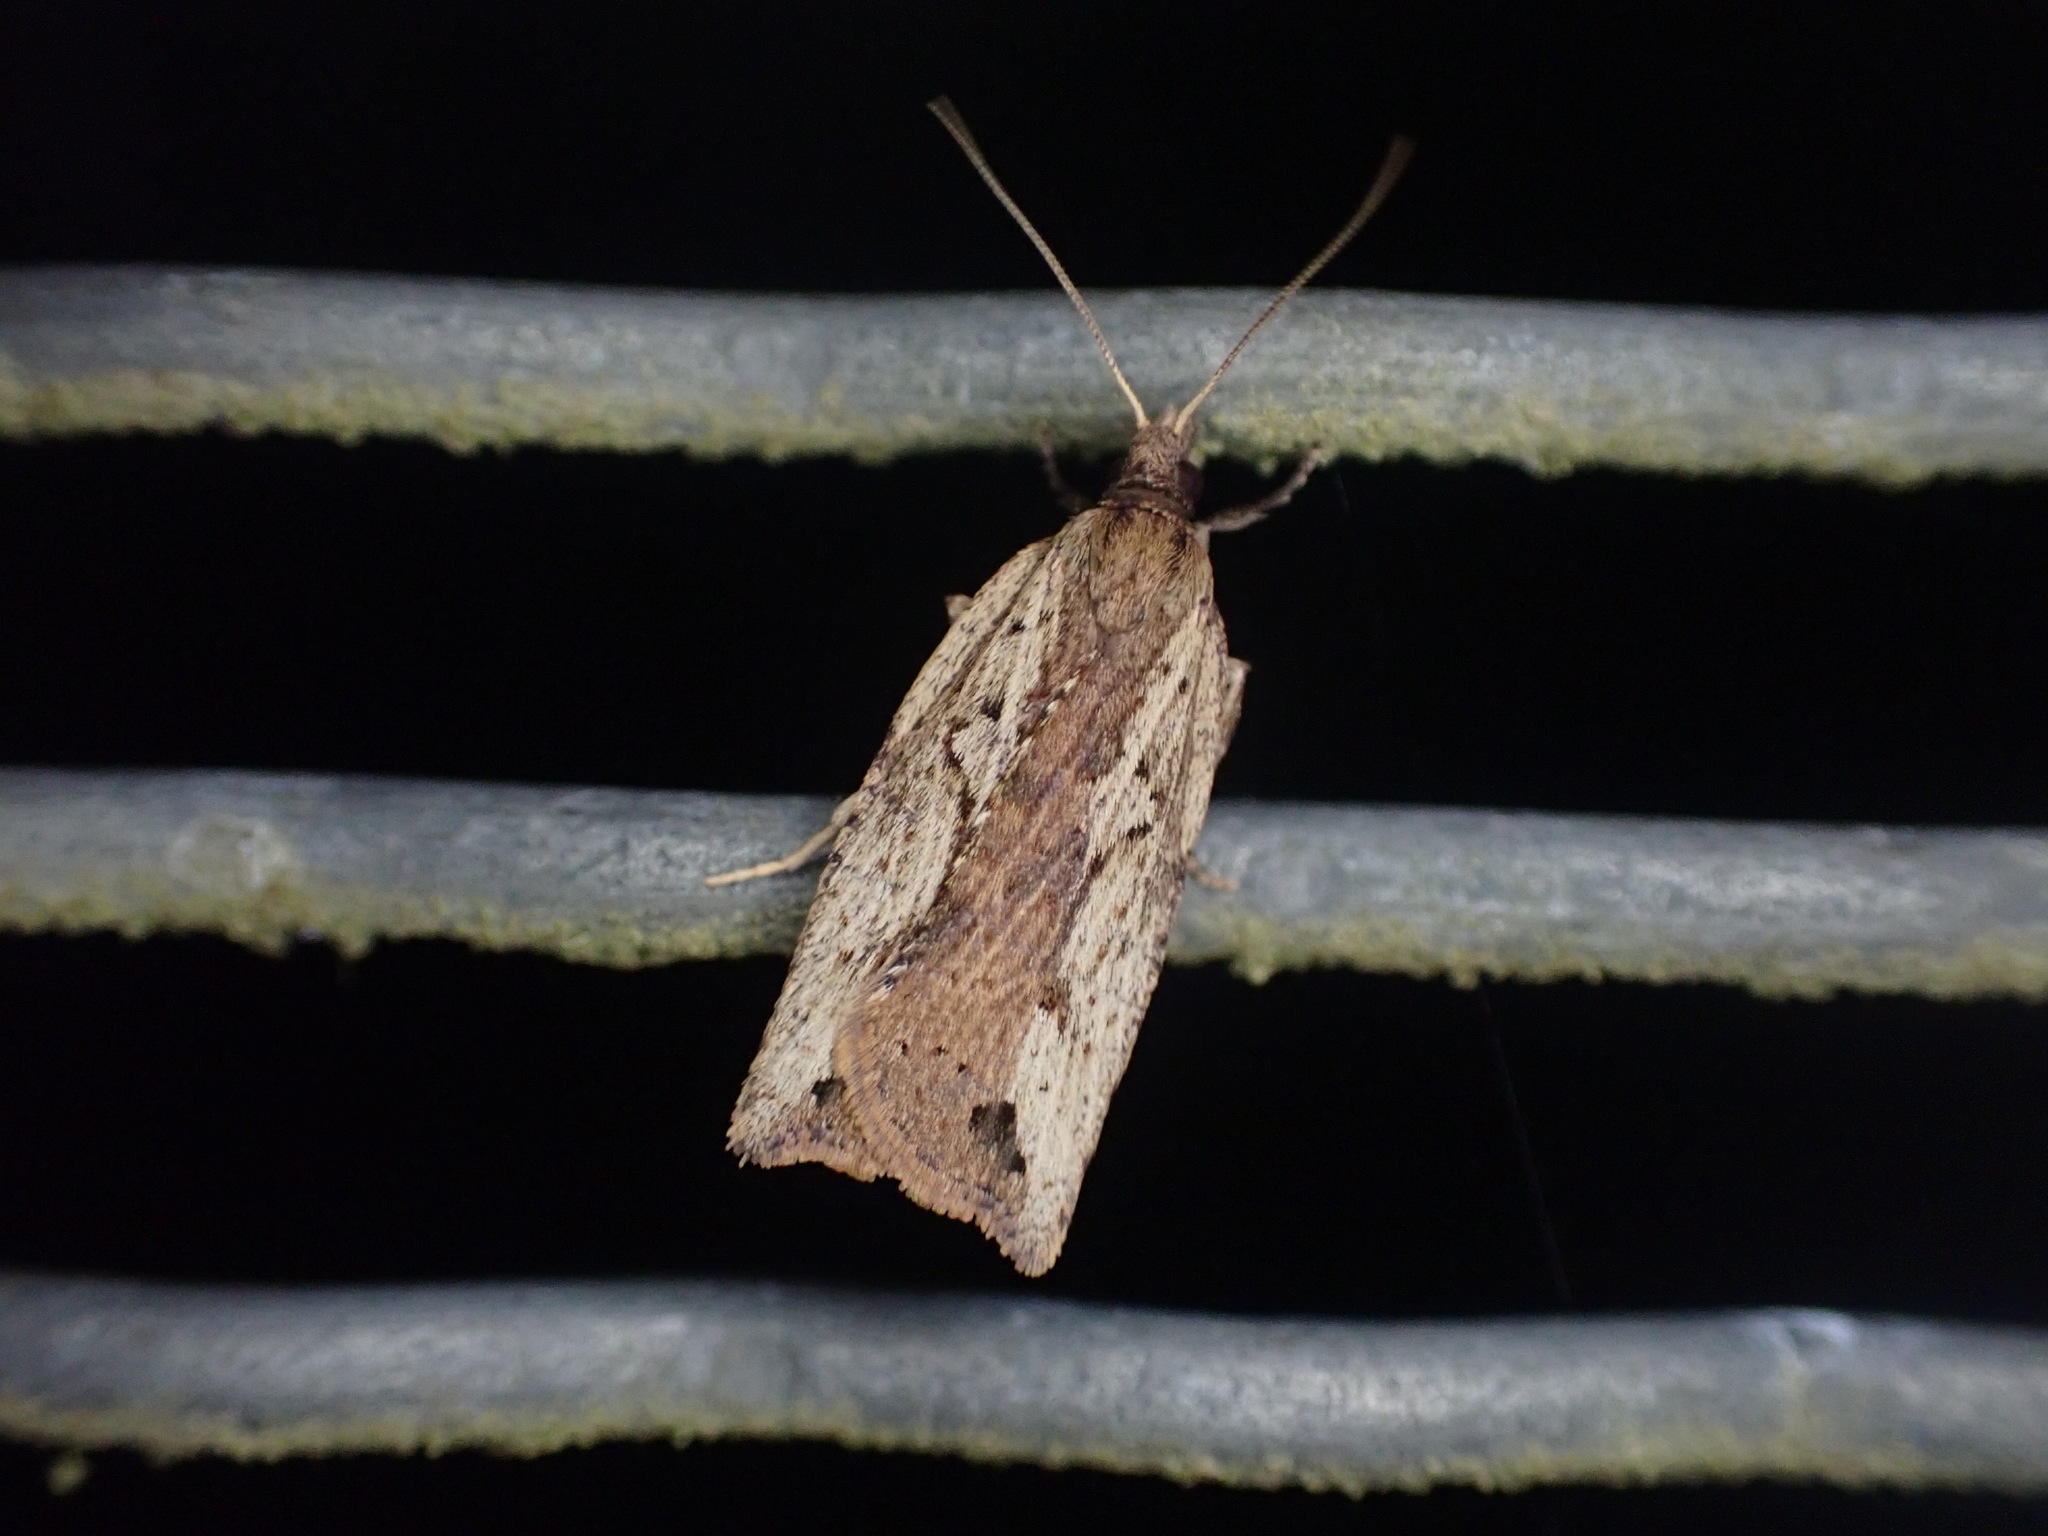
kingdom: Animalia
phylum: Arthropoda
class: Insecta
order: Lepidoptera
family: Tortricidae
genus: Planotortrix
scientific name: Planotortrix notophaea
